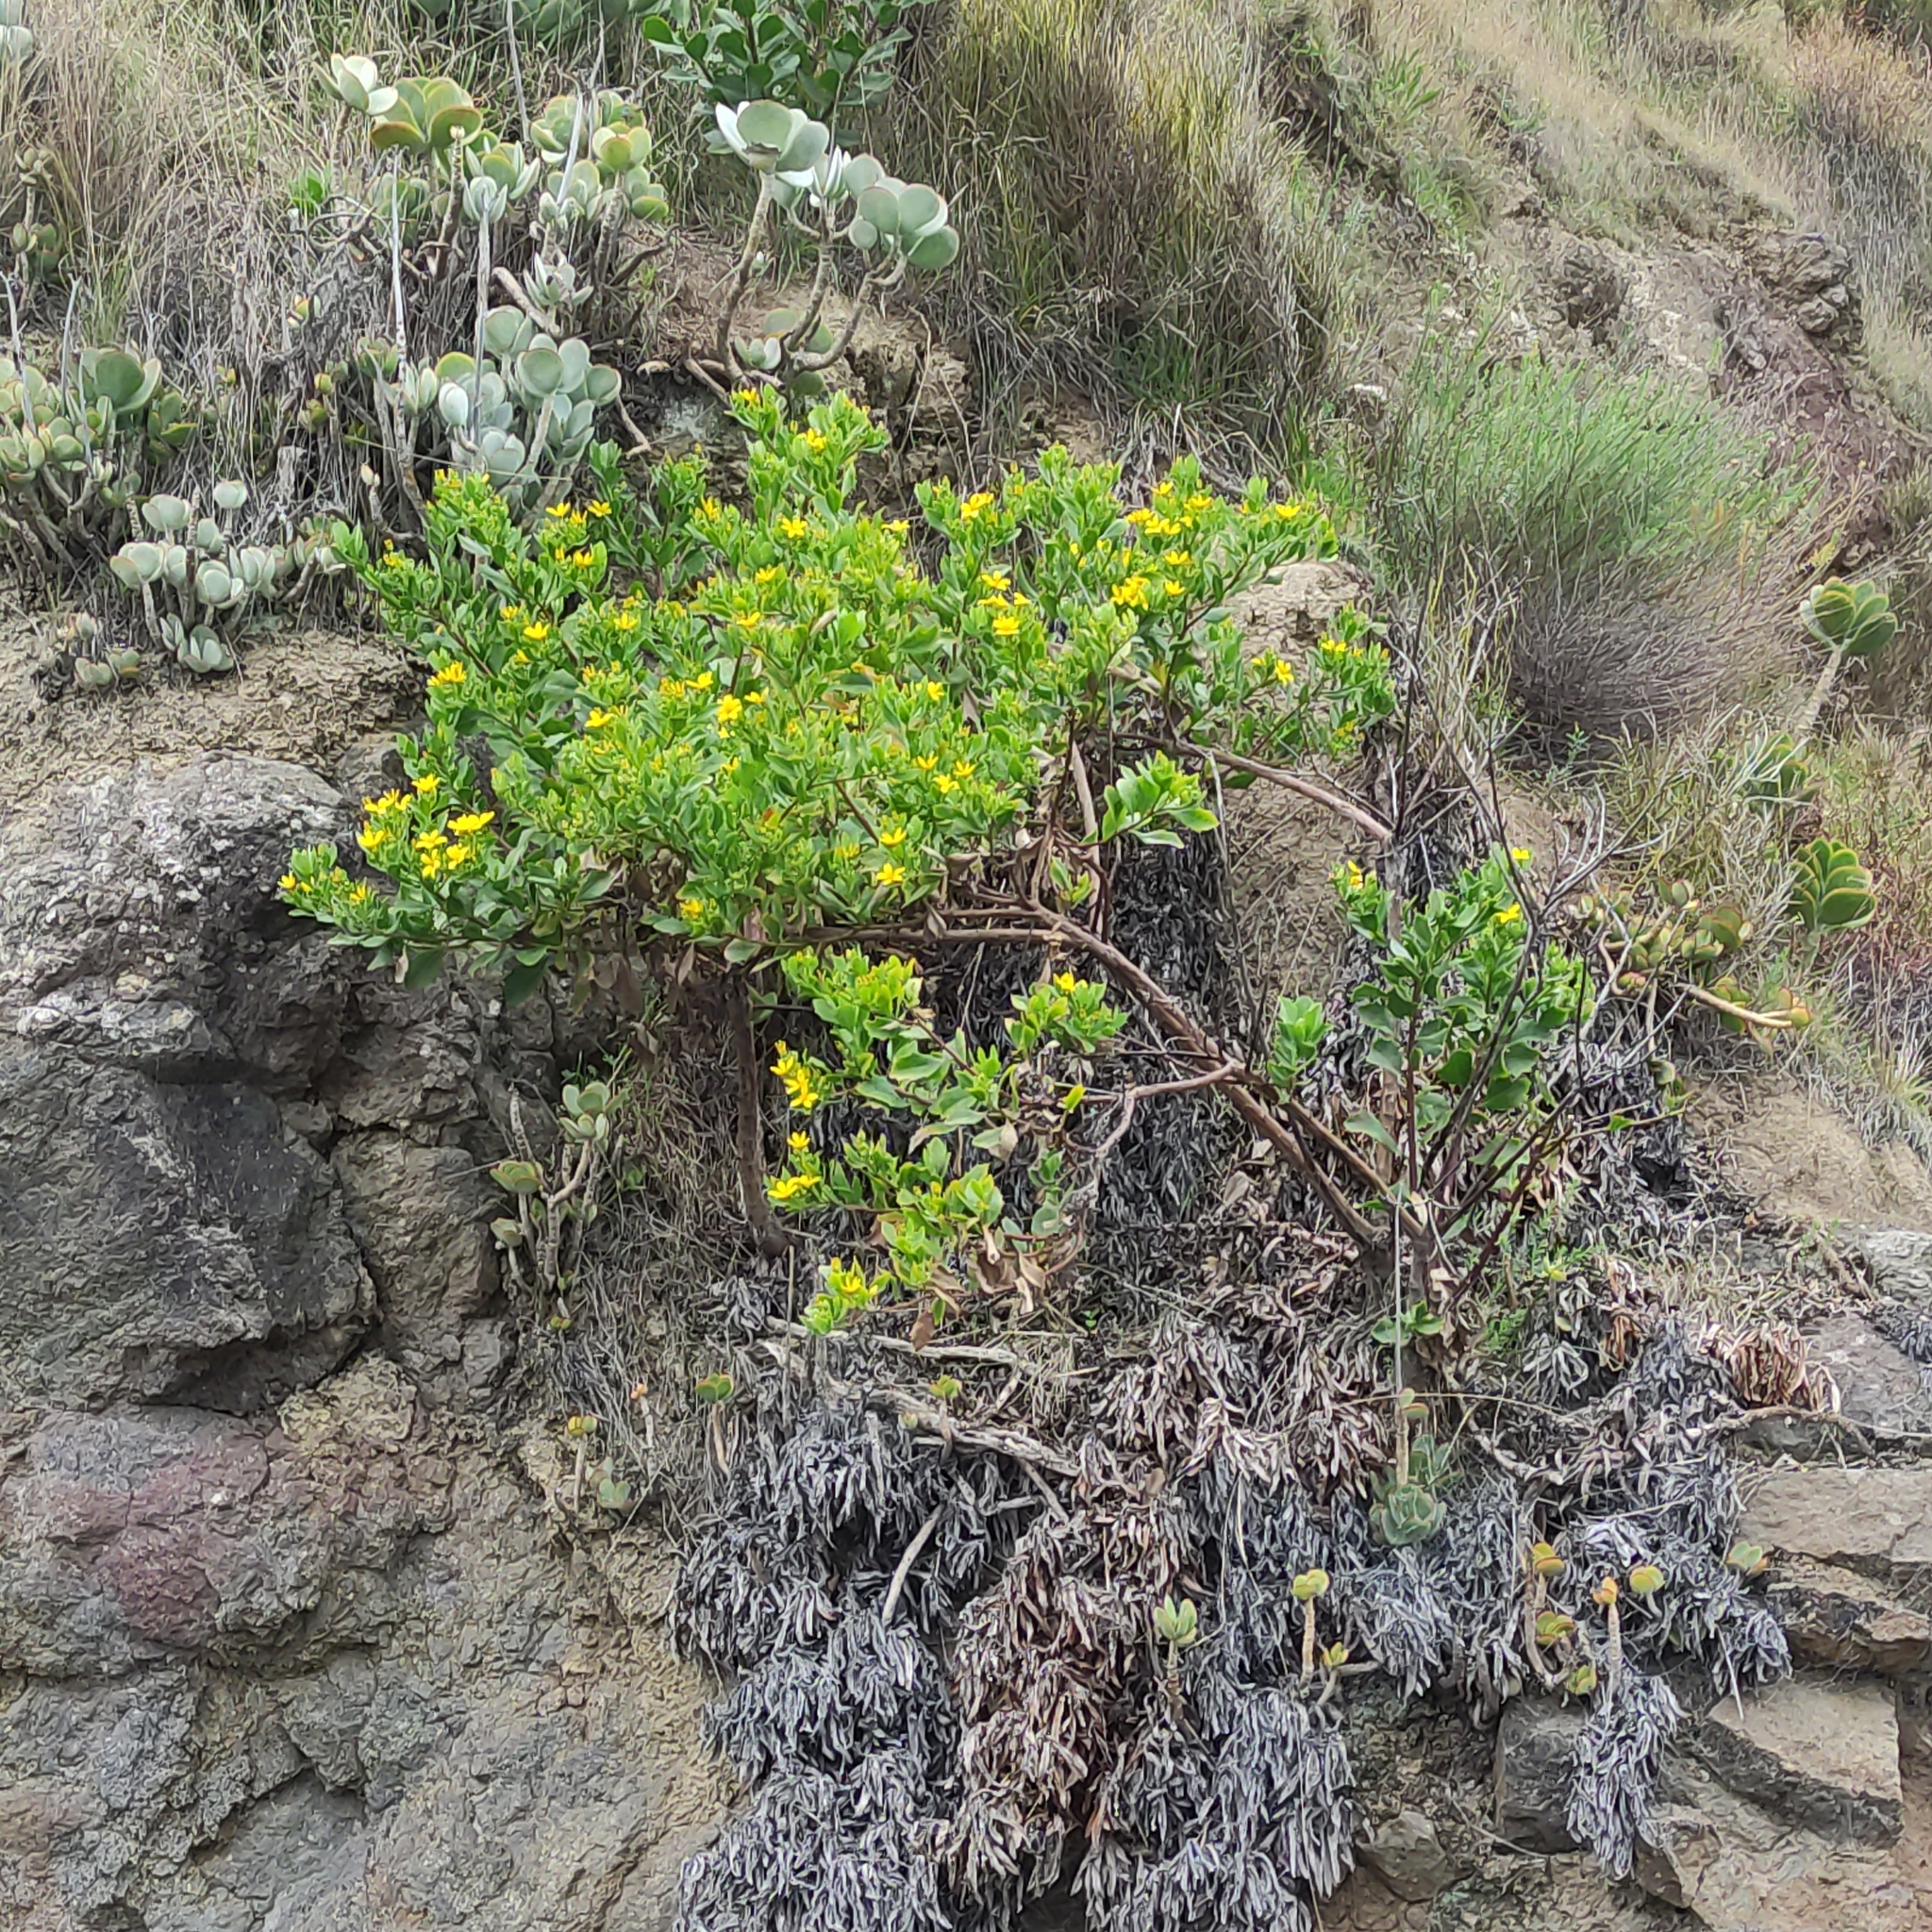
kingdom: Plantae
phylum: Tracheophyta
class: Magnoliopsida
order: Asterales
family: Asteraceae
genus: Osteospermum
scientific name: Osteospermum moniliferum
